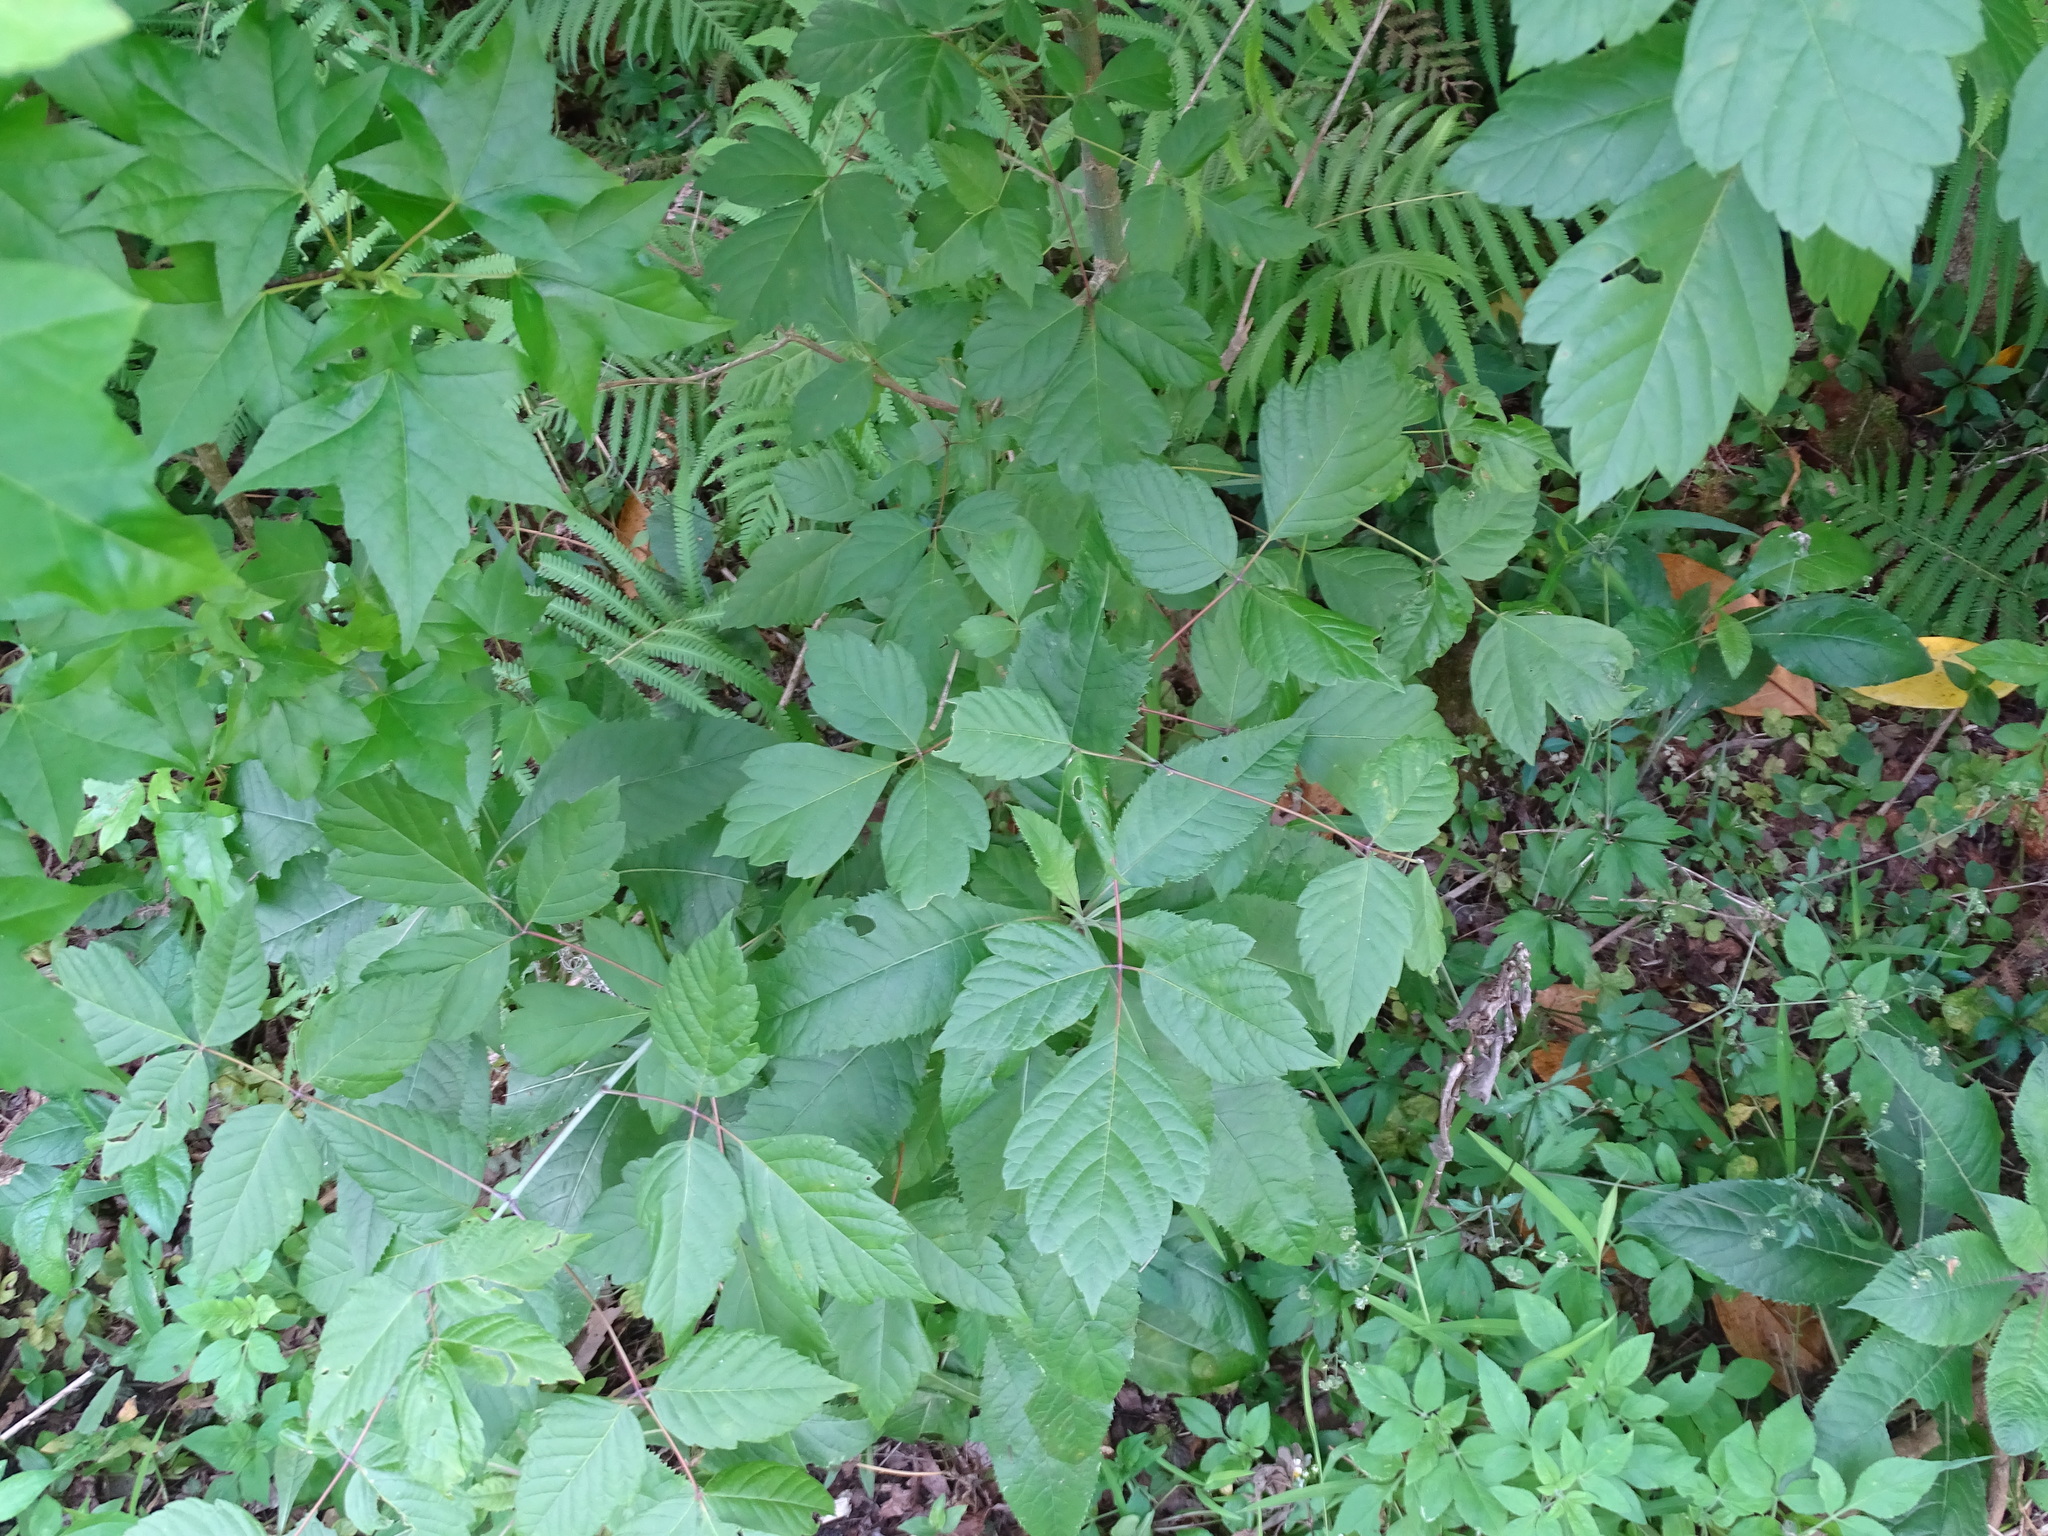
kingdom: Plantae
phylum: Tracheophyta
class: Magnoliopsida
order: Sapindales
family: Sapindaceae
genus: Acer
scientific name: Acer negundo
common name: Ashleaf maple
